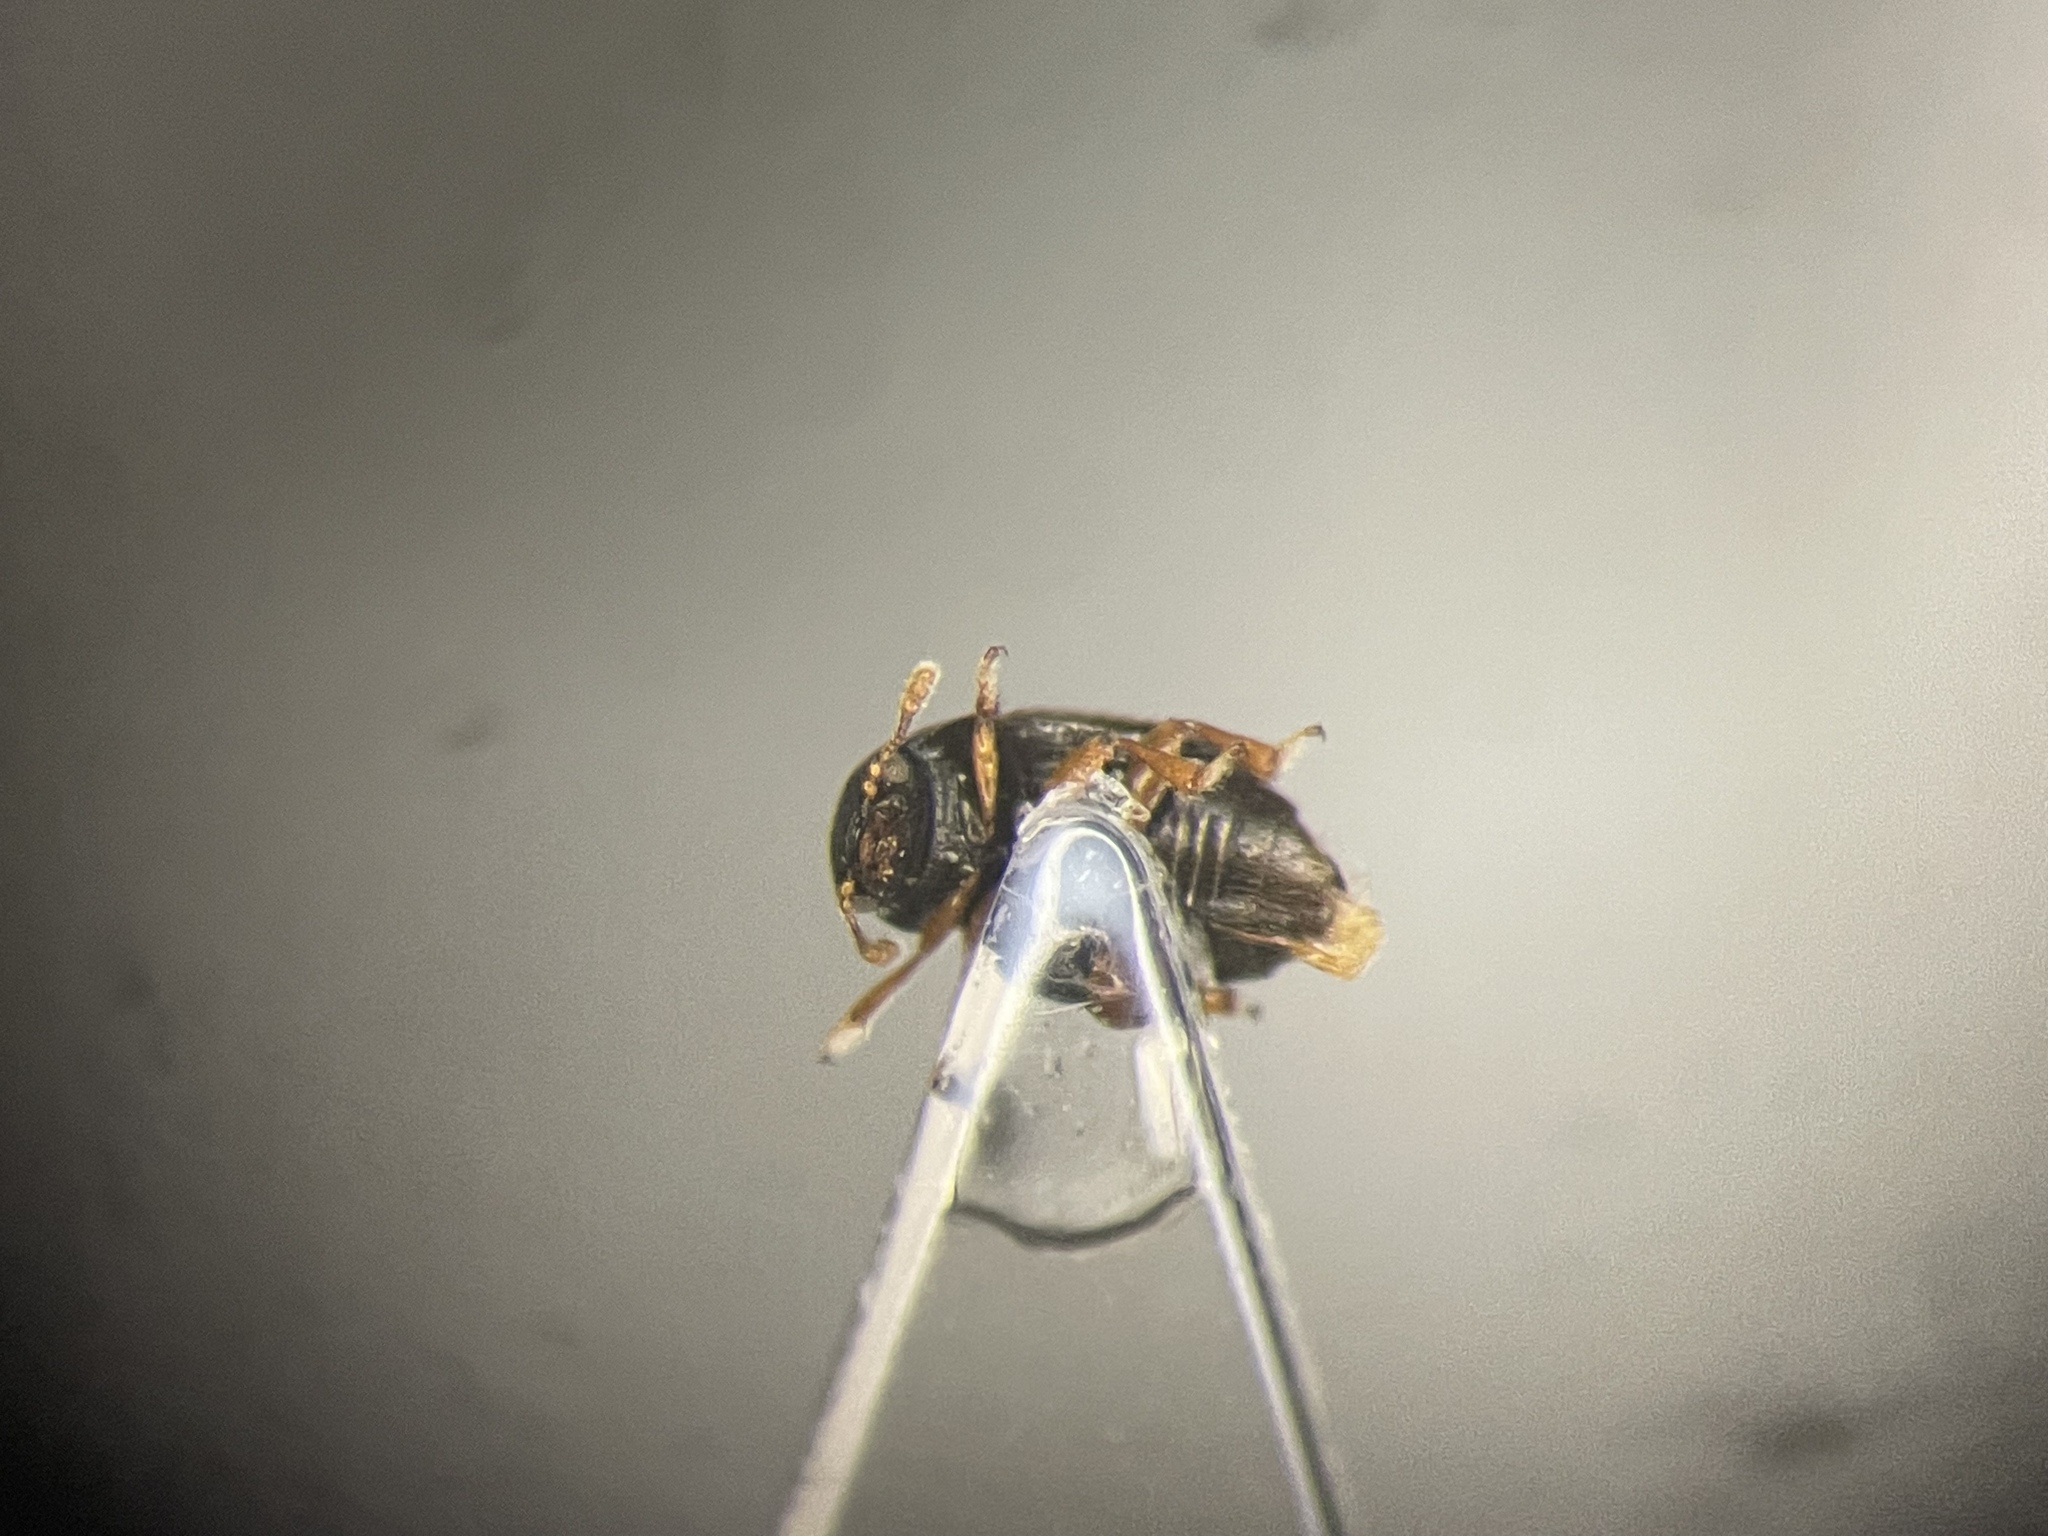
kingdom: Animalia
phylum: Arthropoda
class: Insecta
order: Coleoptera
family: Kateretidae
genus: Brachypterus
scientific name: Brachypterus urticae
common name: Sap beetle
